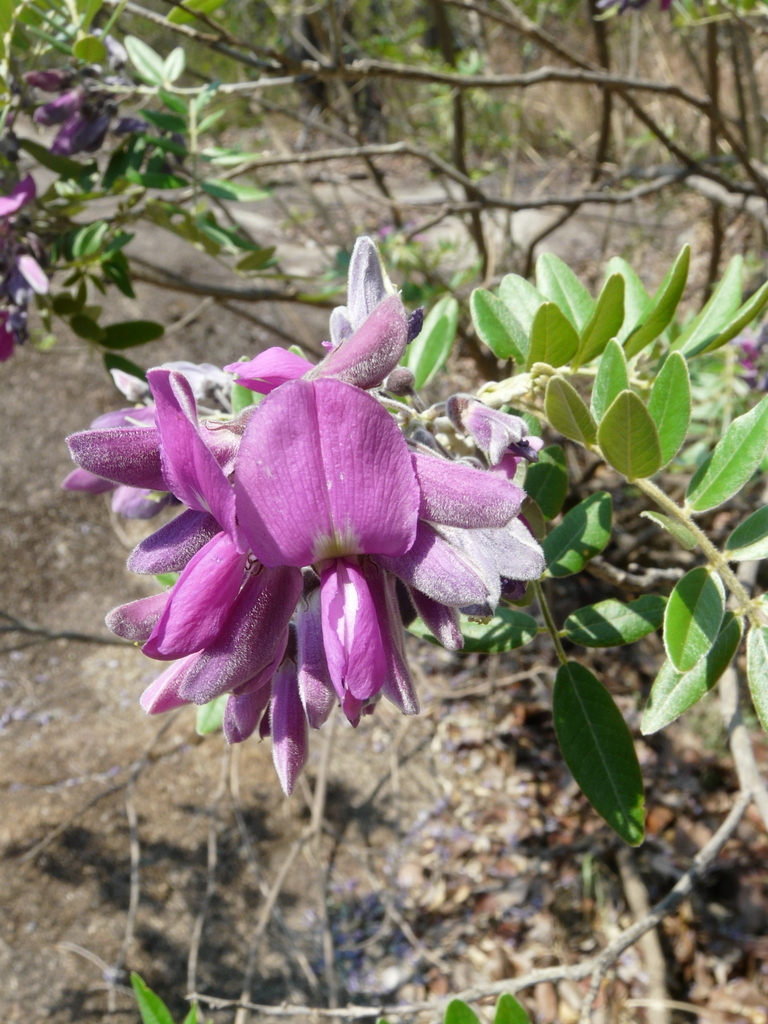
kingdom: Plantae
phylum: Tracheophyta
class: Magnoliopsida
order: Fabales
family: Fabaceae
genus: Mundulea
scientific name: Mundulea sericea
